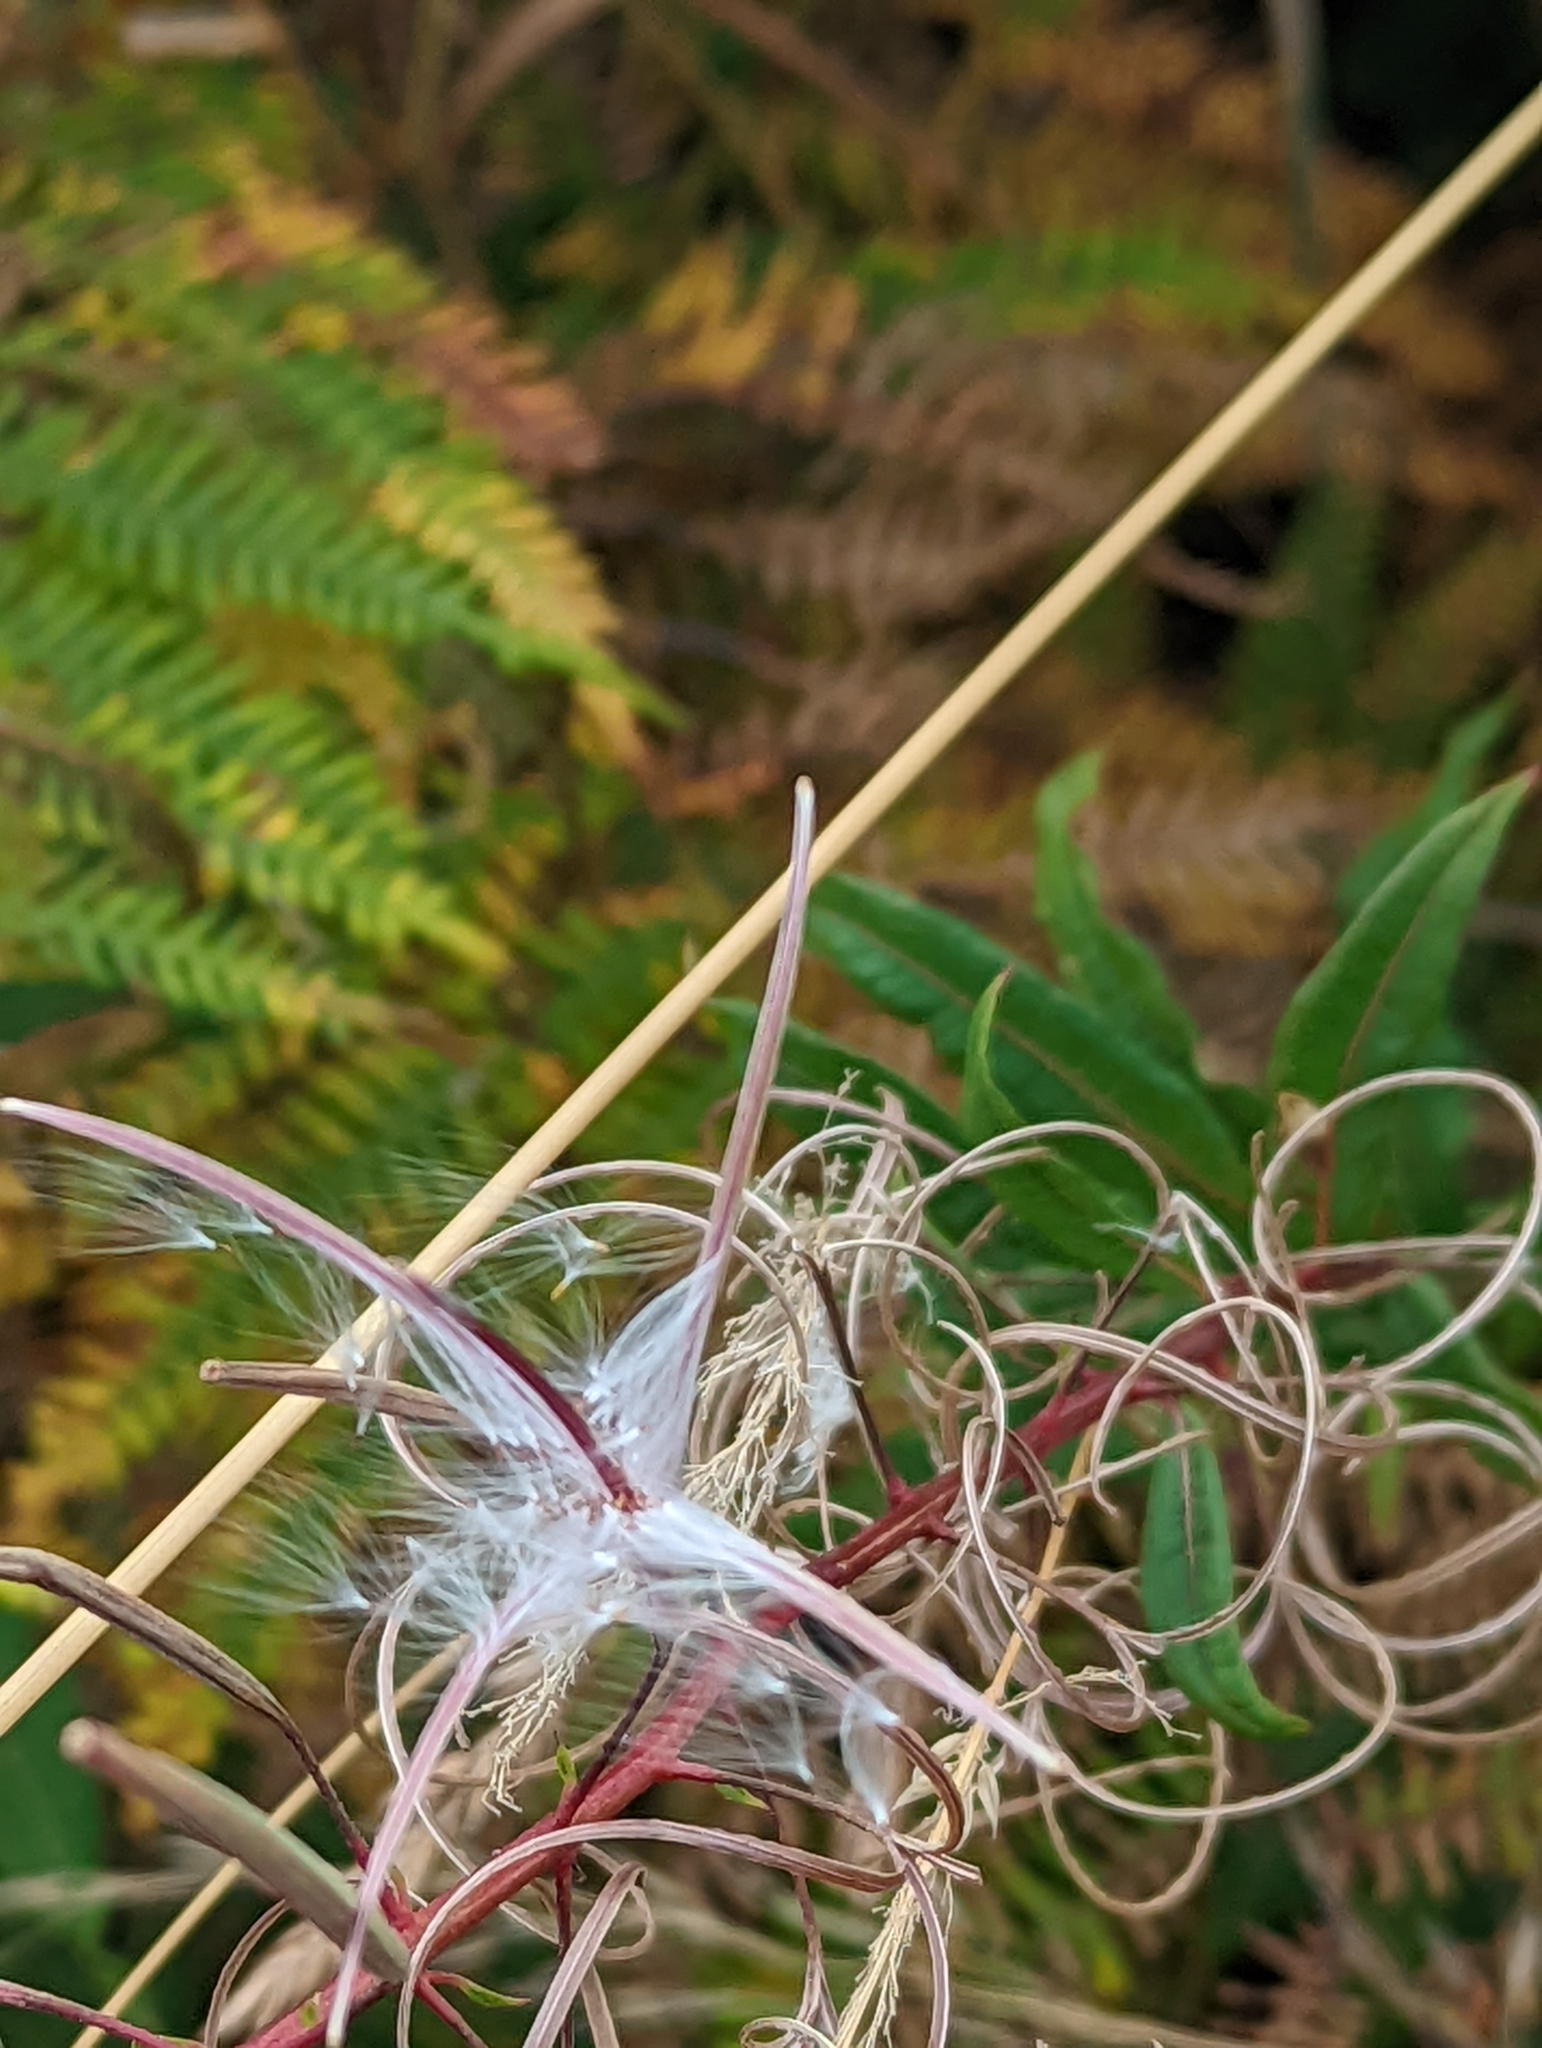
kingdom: Plantae
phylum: Tracheophyta
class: Magnoliopsida
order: Myrtales
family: Onagraceae
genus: Chamaenerion
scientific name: Chamaenerion angustifolium
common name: Fireweed
